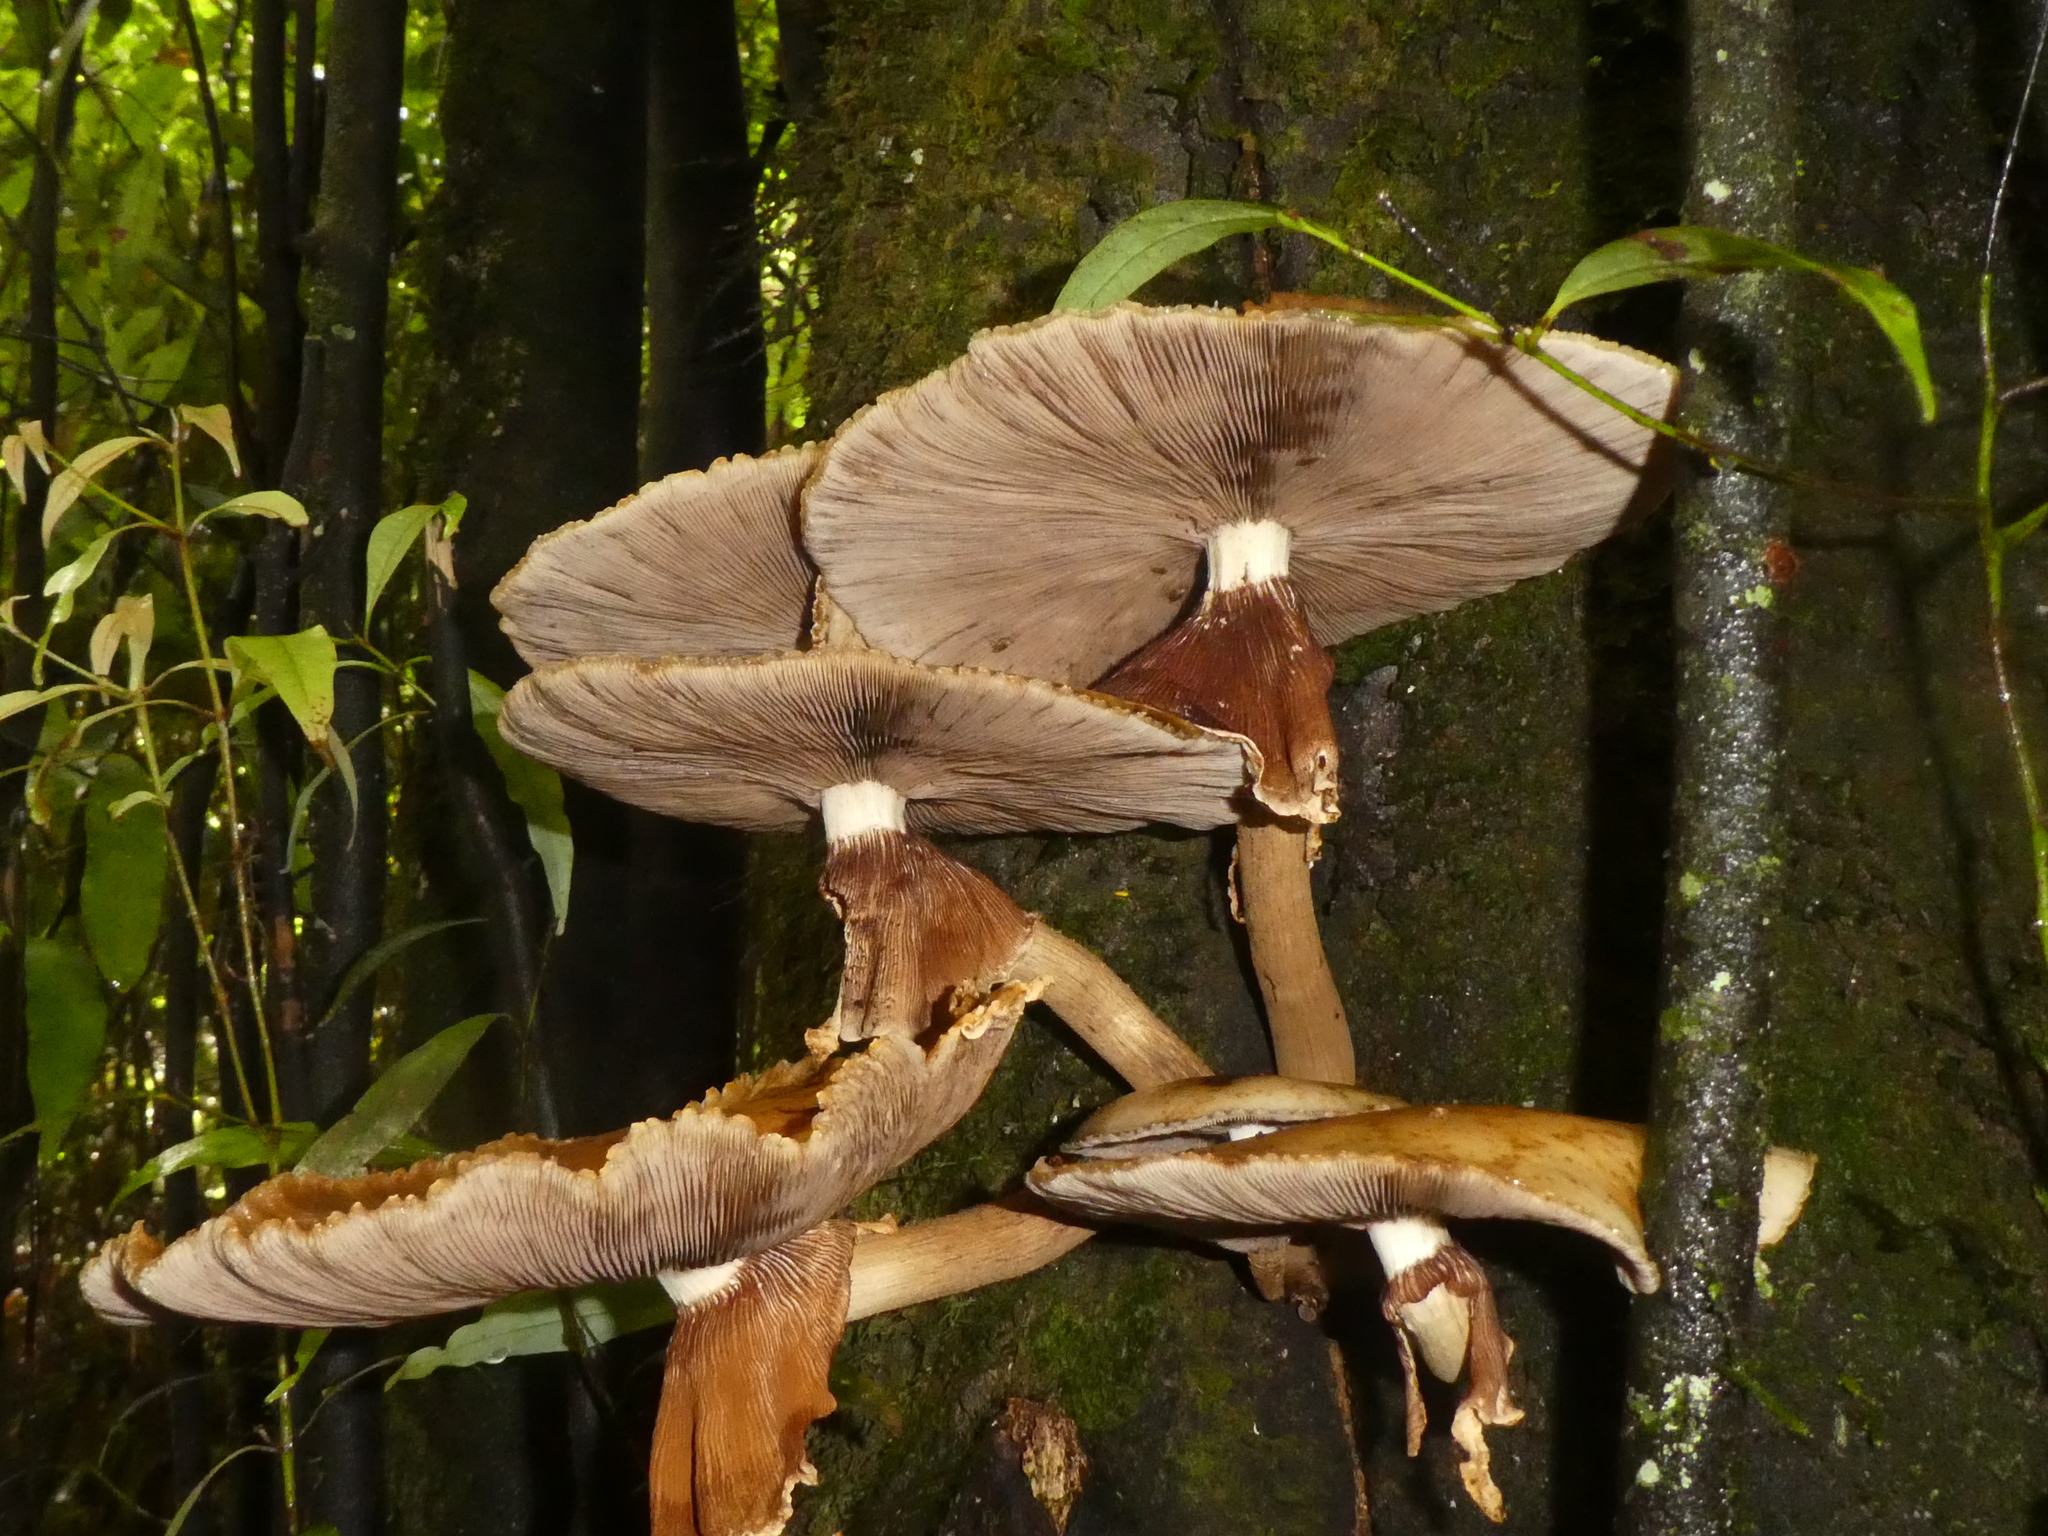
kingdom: Fungi
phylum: Basidiomycota
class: Agaricomycetes
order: Agaricales
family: Tubariaceae
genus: Cyclocybe
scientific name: Cyclocybe parasitica
